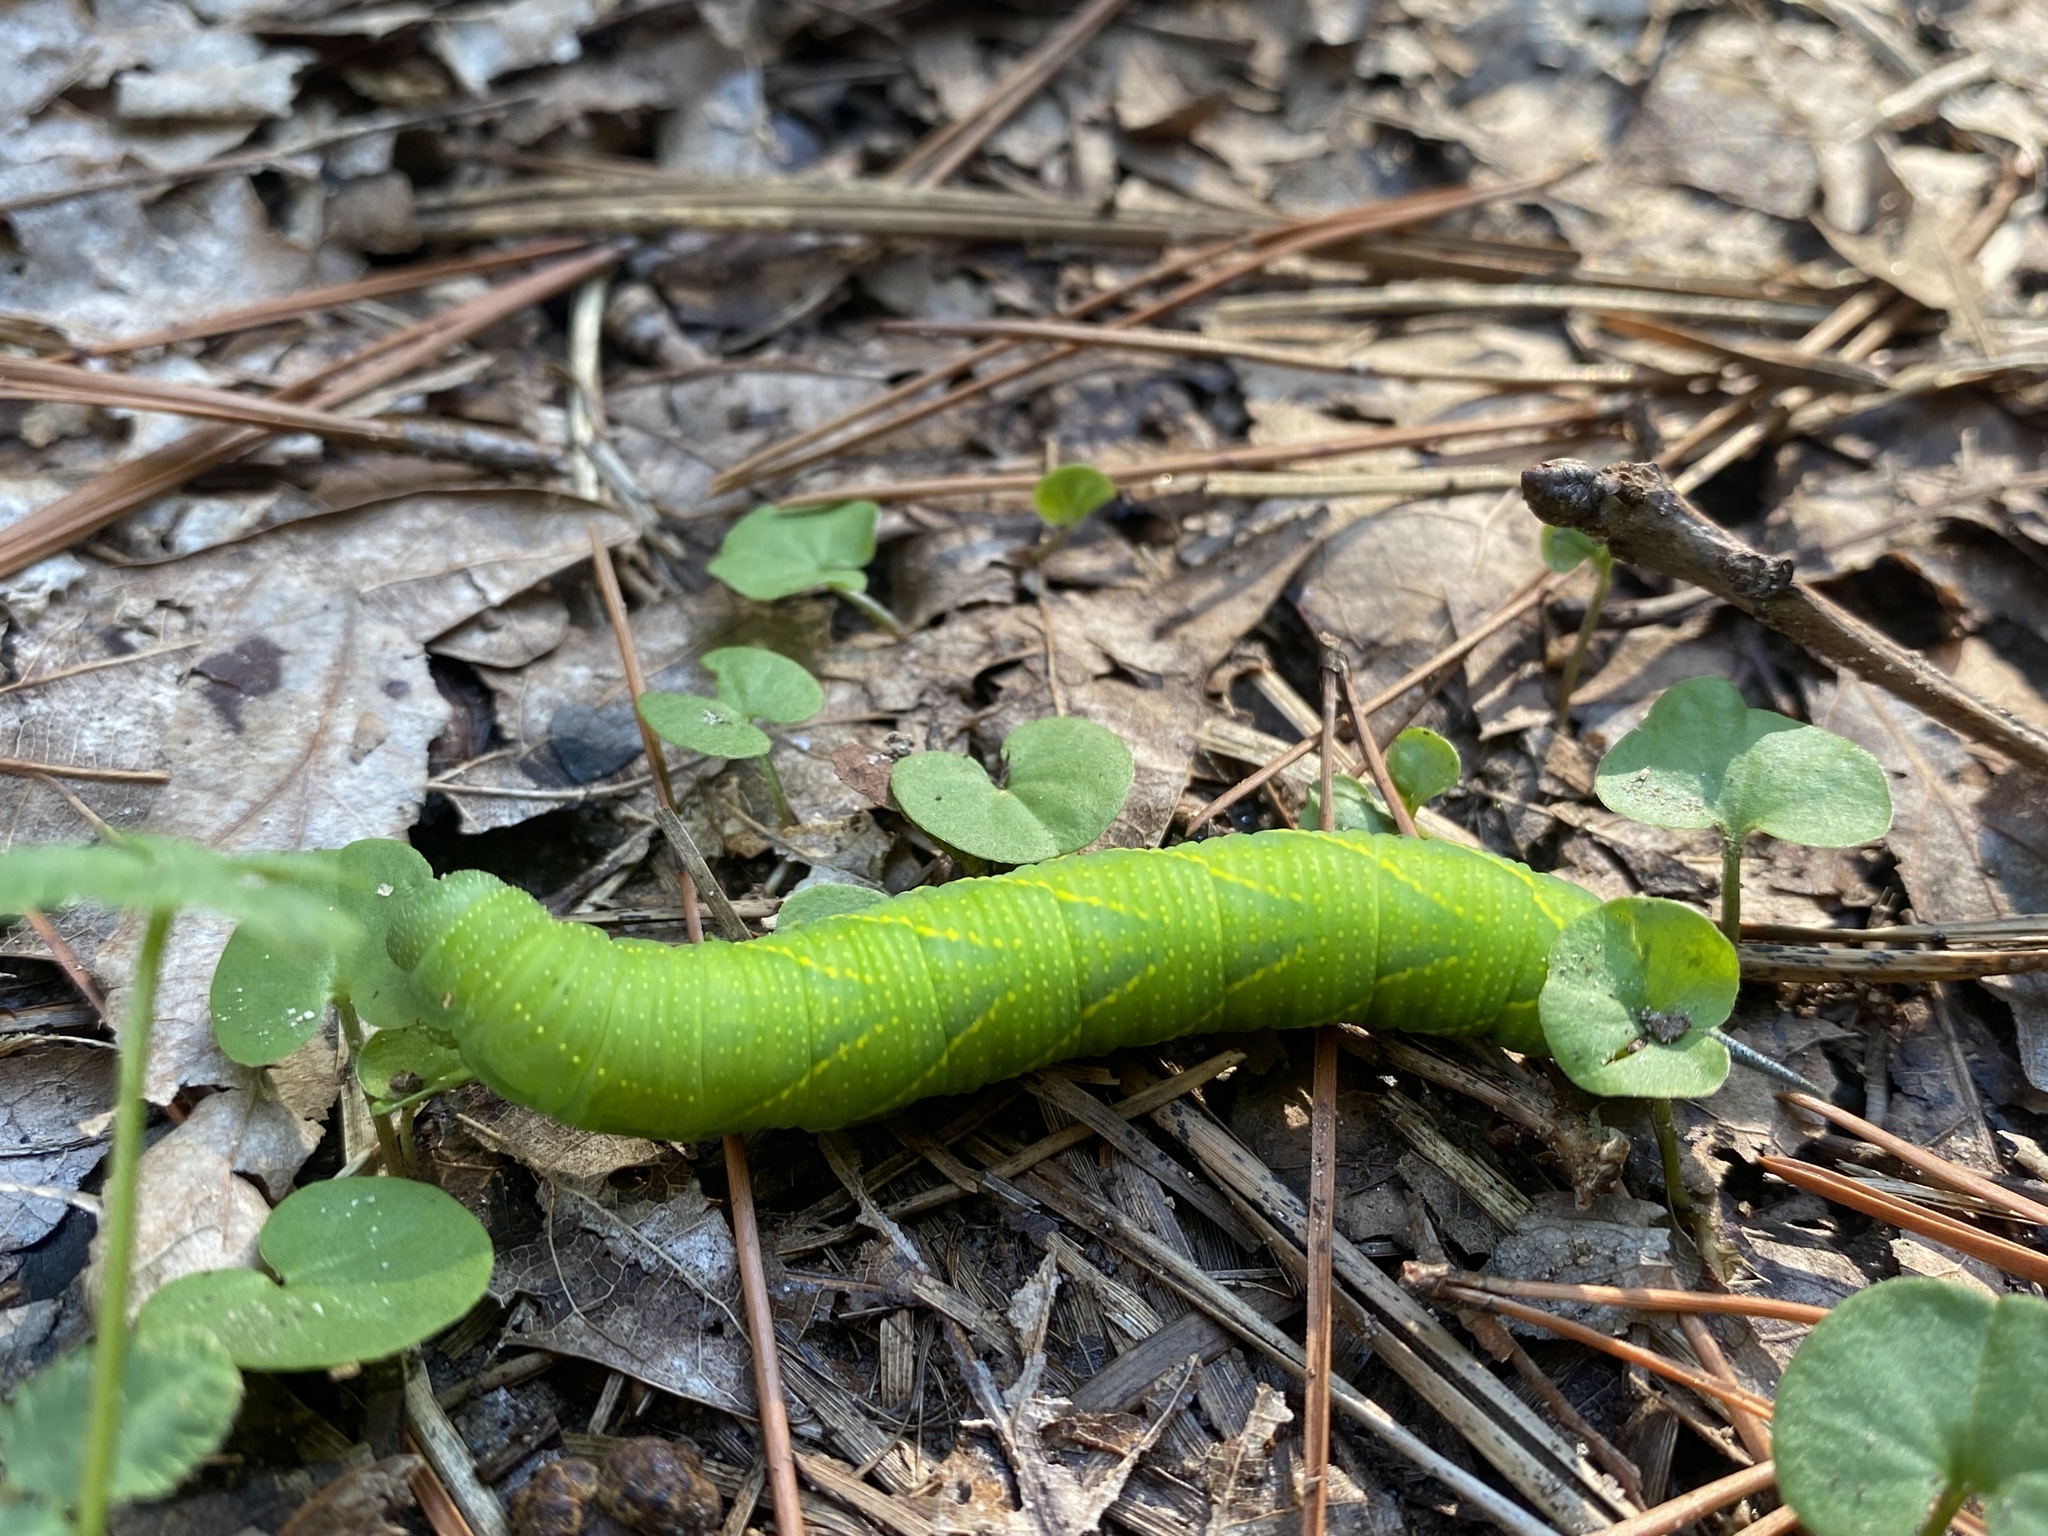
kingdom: Animalia
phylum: Arthropoda
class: Insecta
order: Lepidoptera
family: Sphingidae
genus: Paratrea
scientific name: Paratrea plebeja
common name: Plebian sphinx
